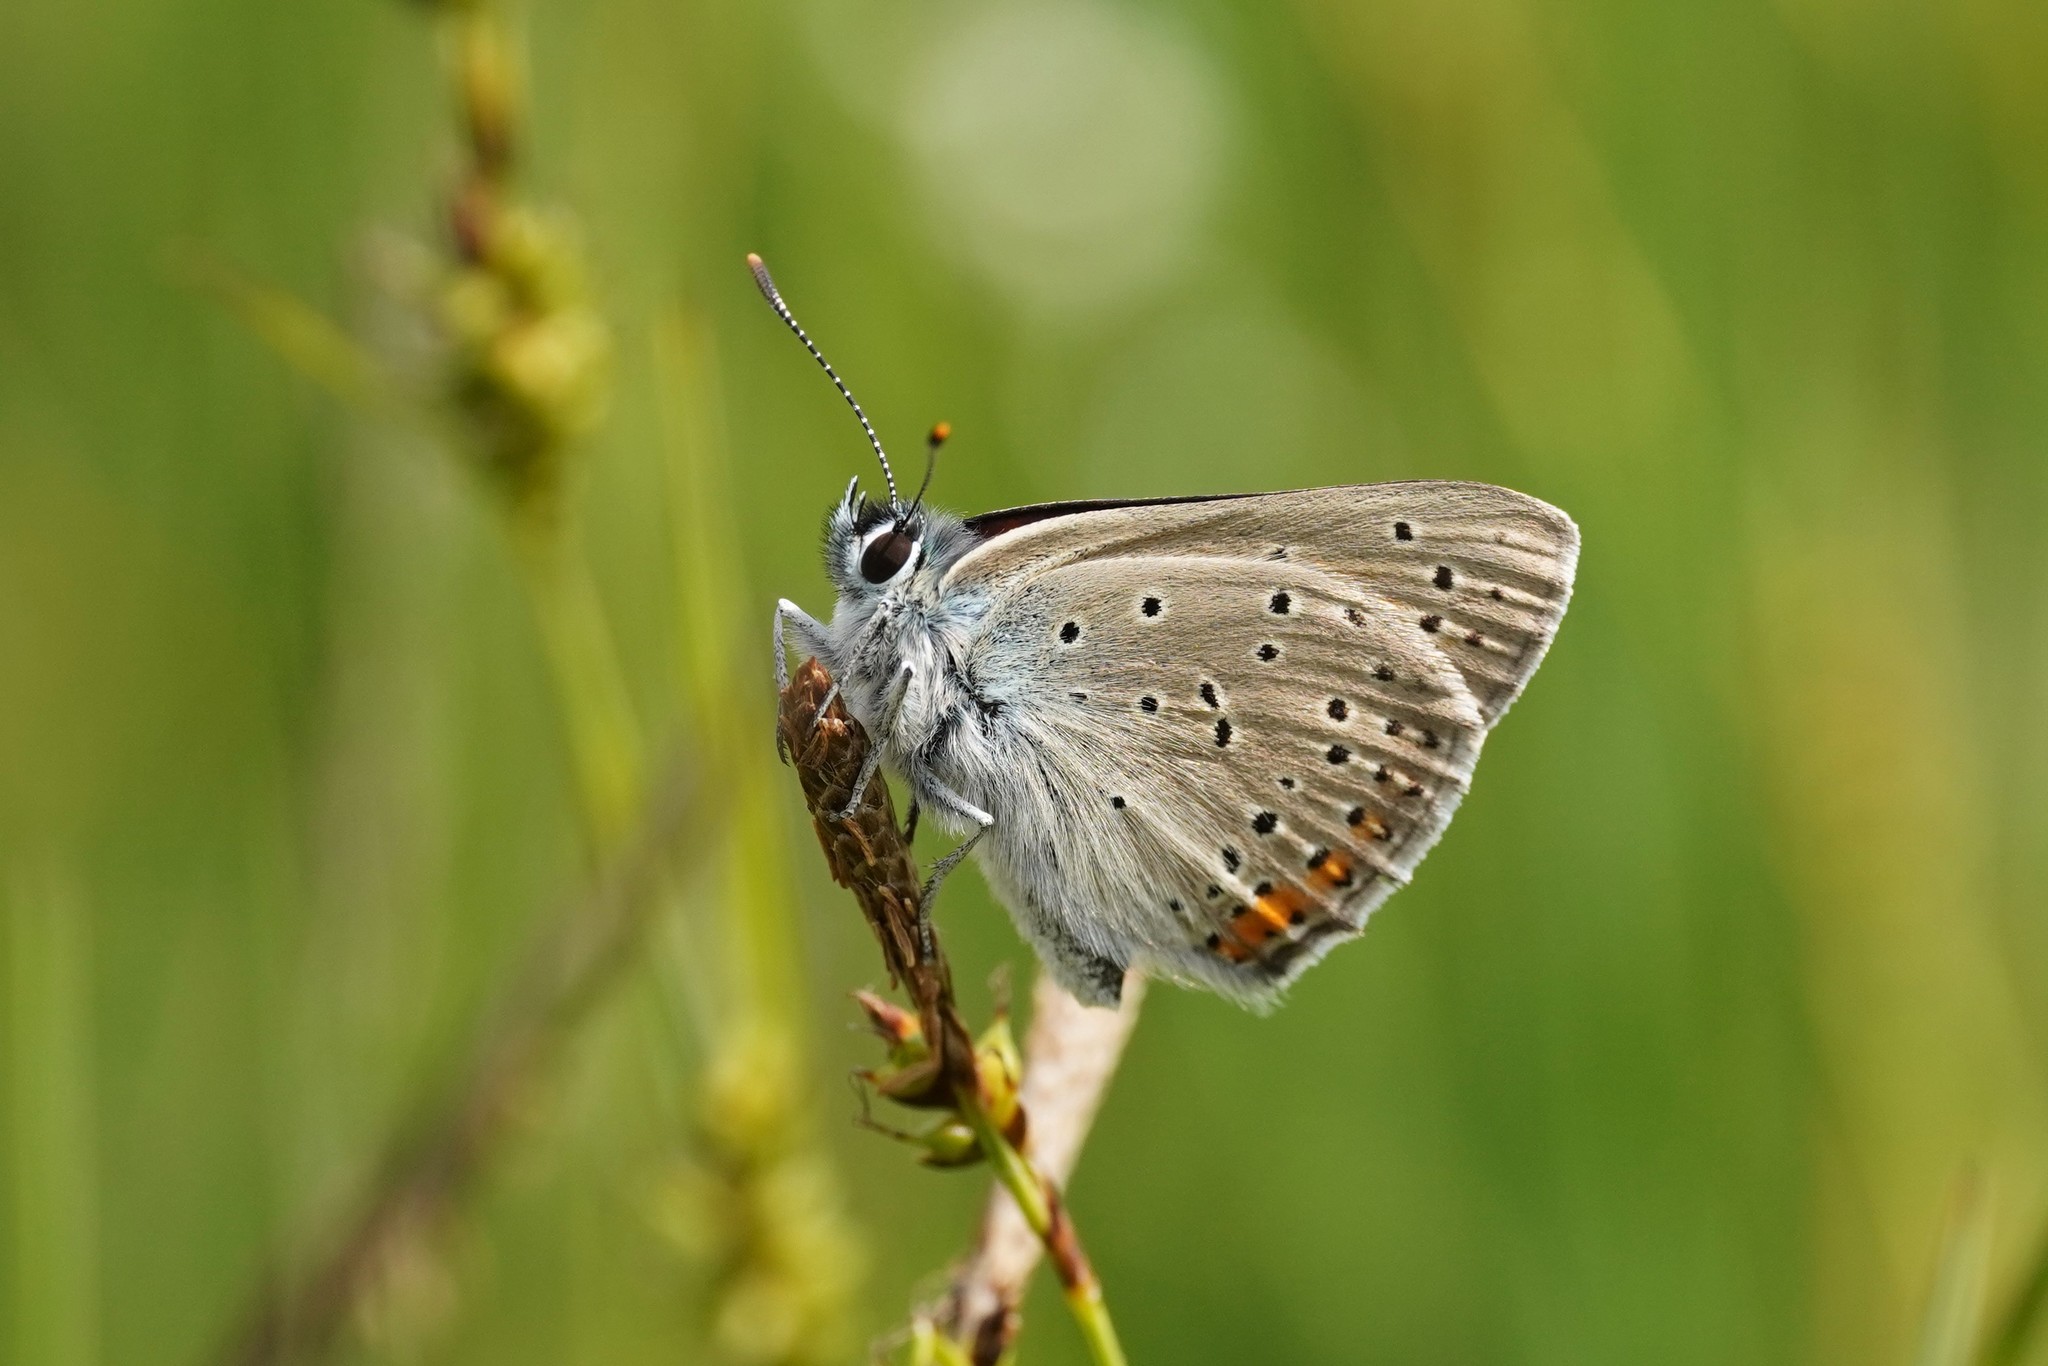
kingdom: Animalia
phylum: Arthropoda
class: Insecta
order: Lepidoptera
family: Lycaenidae
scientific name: Lycaenidae
